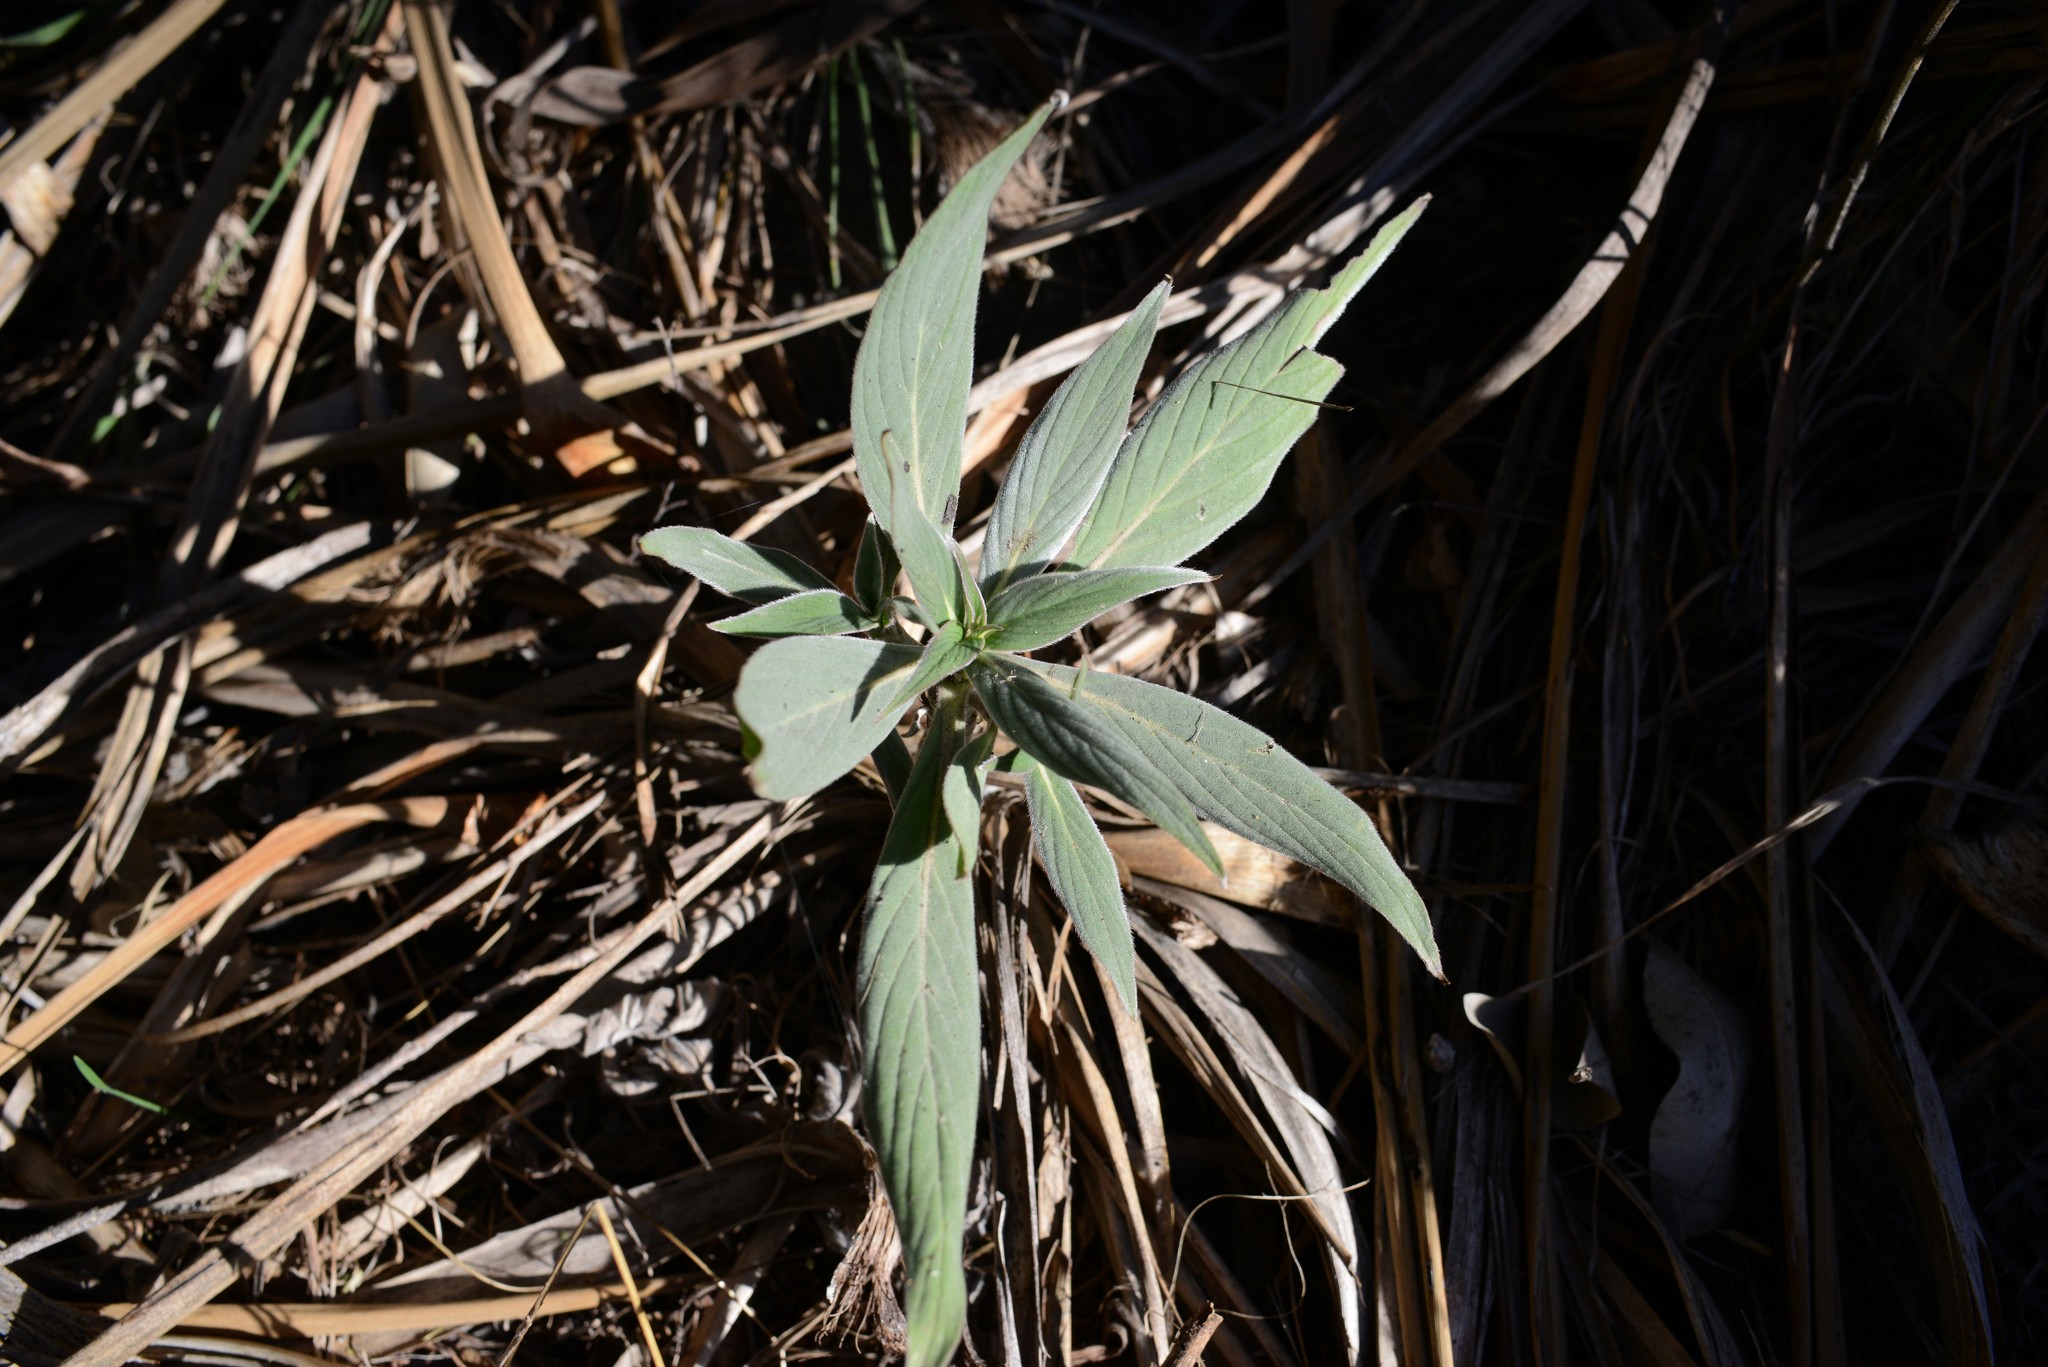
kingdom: Plantae
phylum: Tracheophyta
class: Magnoliopsida
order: Boraginales
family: Boraginaceae
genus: Echium
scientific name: Echium candicans
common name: Pride of madeira
